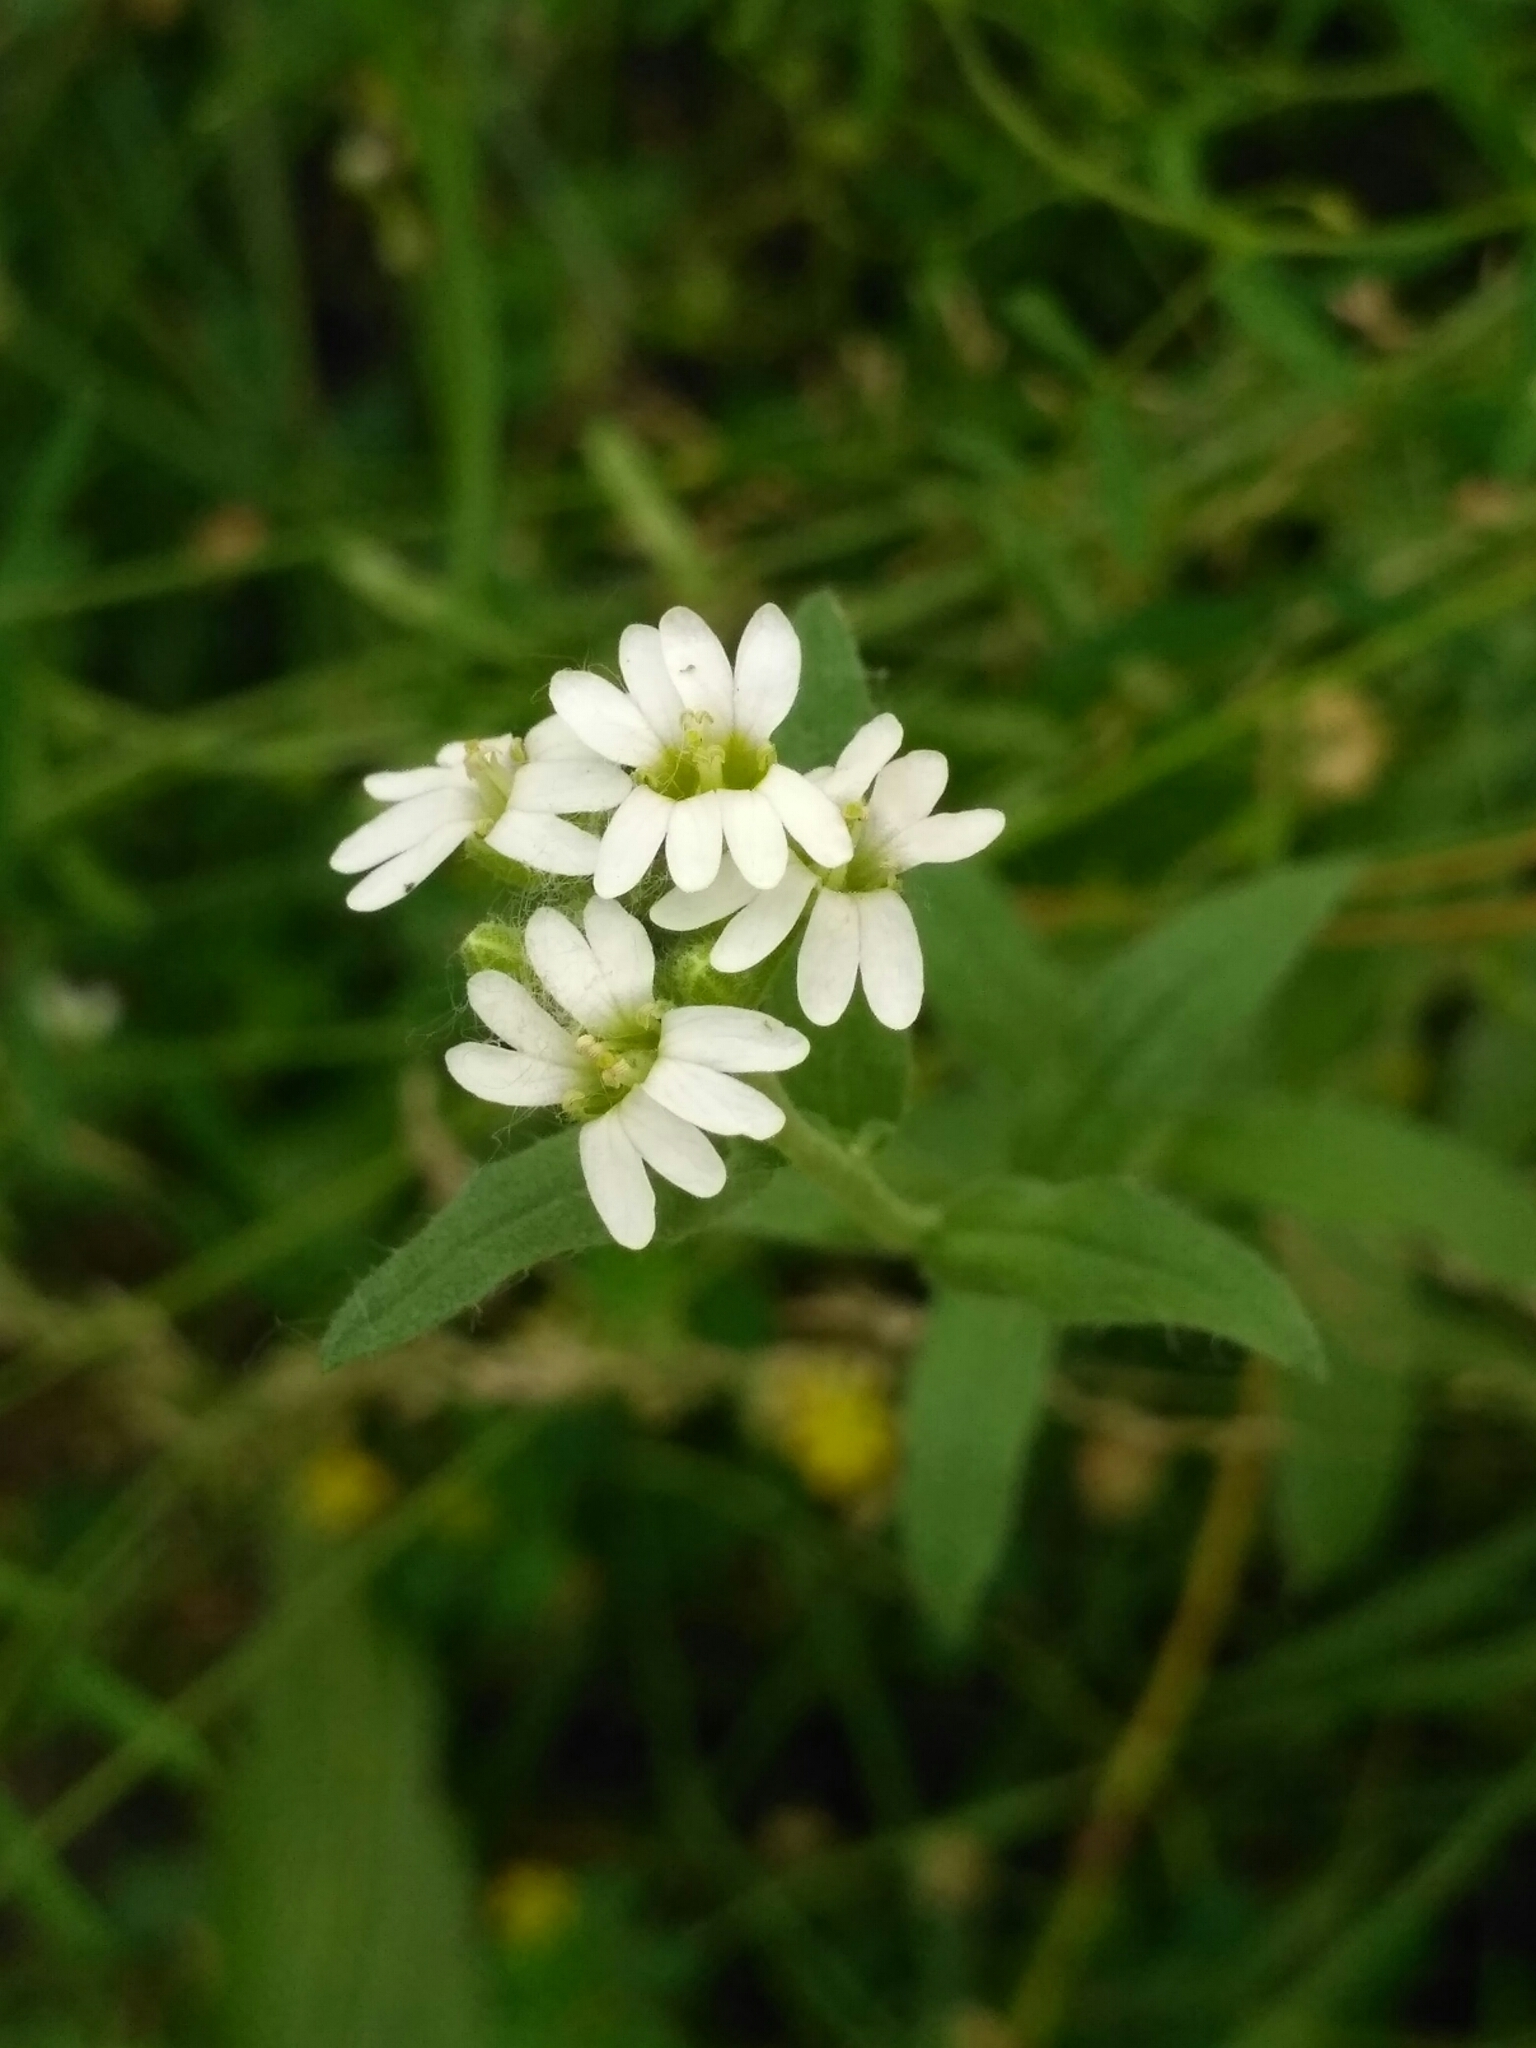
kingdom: Plantae
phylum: Tracheophyta
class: Magnoliopsida
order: Brassicales
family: Brassicaceae
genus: Berteroa
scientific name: Berteroa incana
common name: Hoary alison
